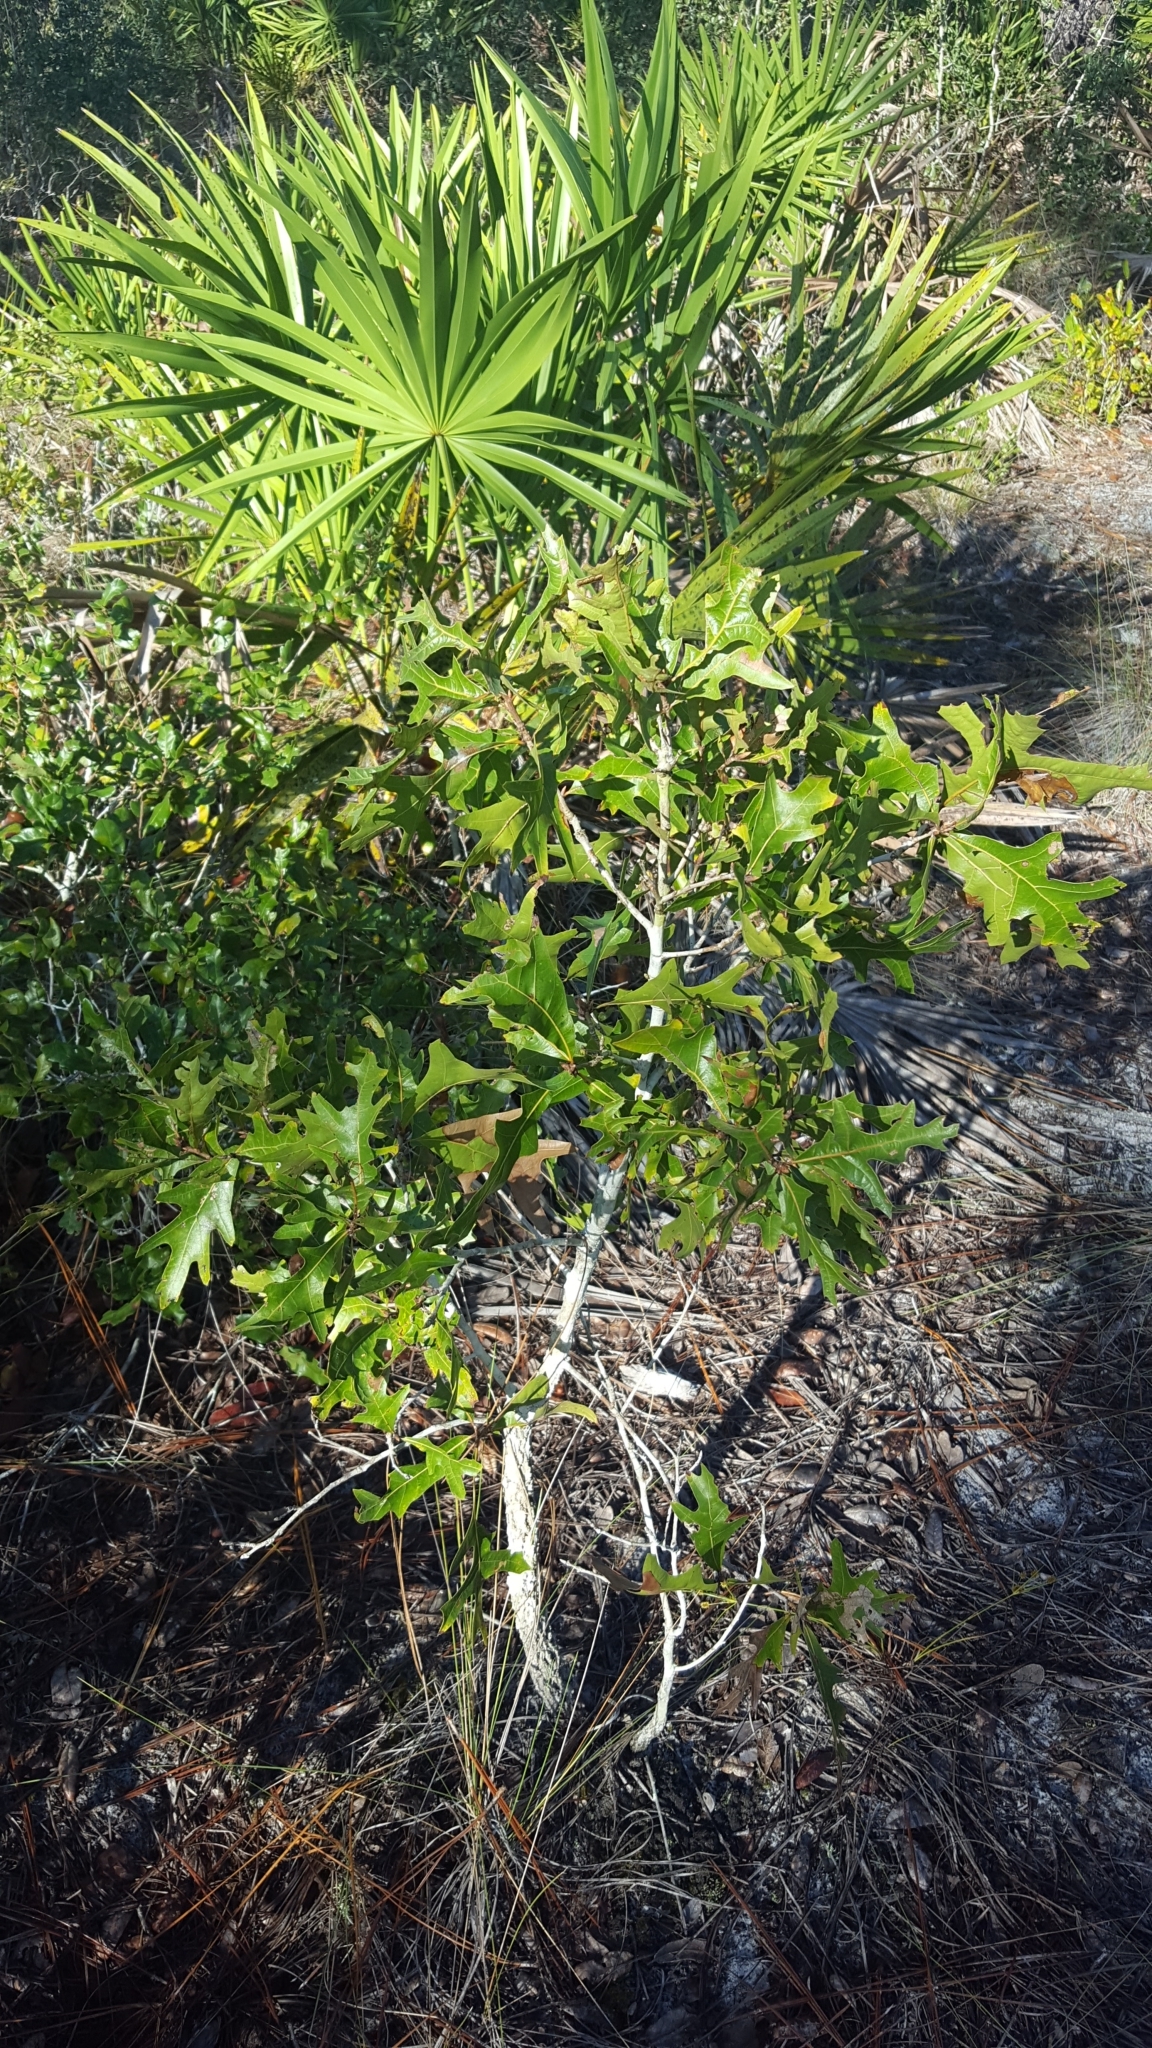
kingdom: Plantae
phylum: Tracheophyta
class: Magnoliopsida
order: Fagales
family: Fagaceae
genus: Quercus
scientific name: Quercus laevis
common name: Turkey oak
